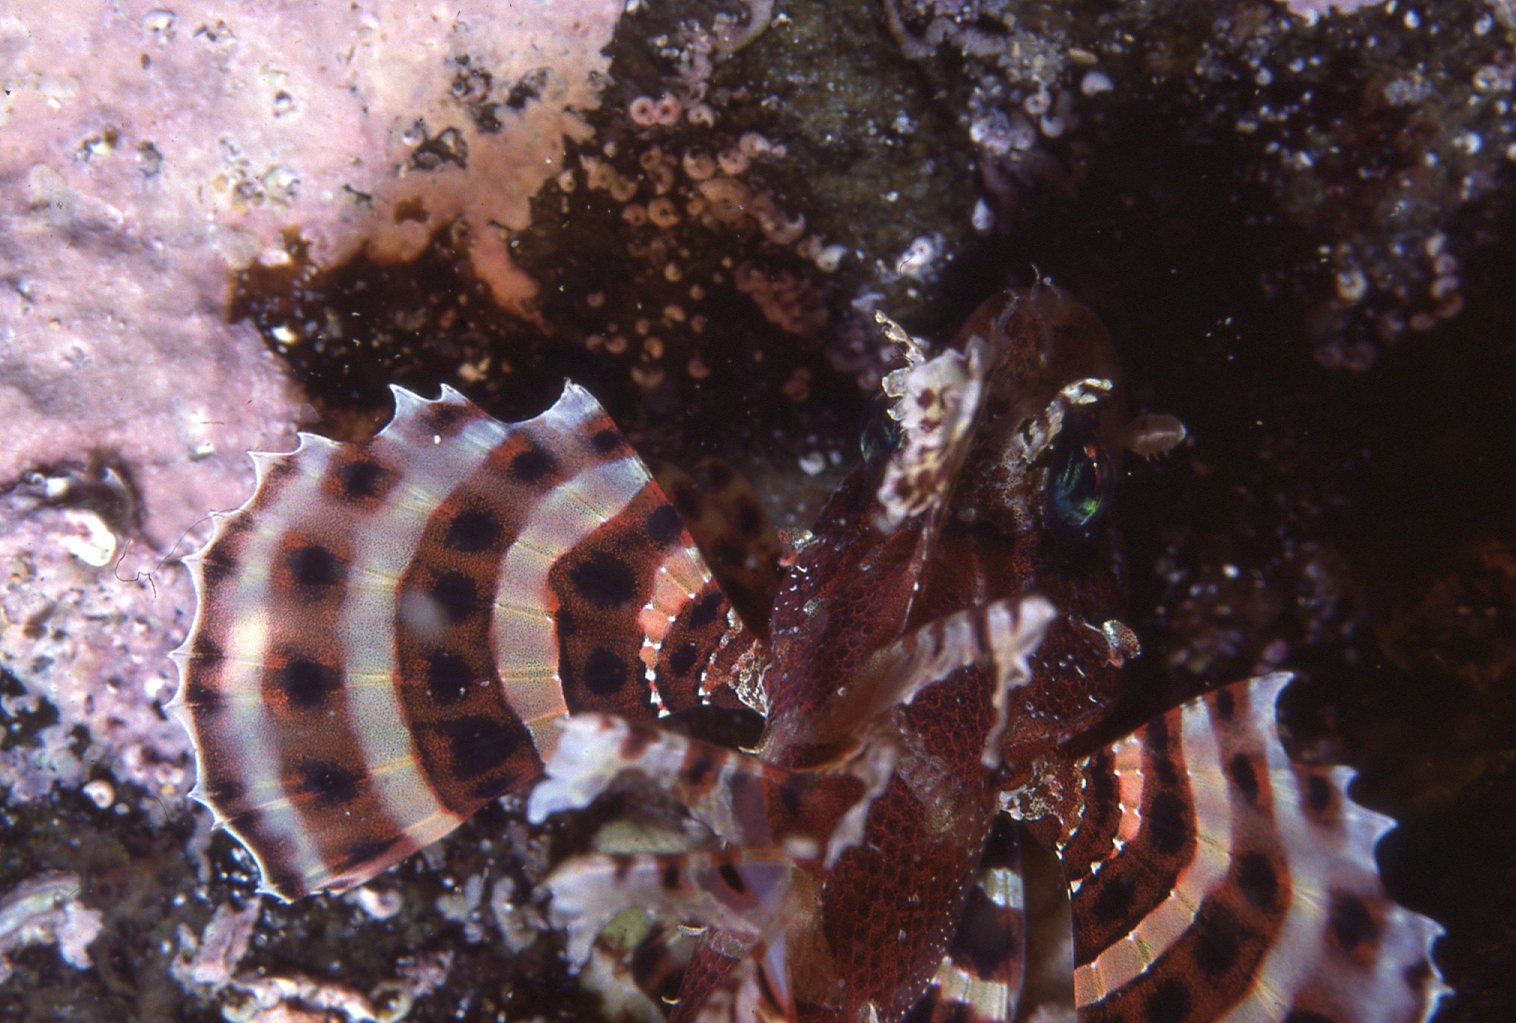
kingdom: Animalia
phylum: Chordata
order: Scorpaeniformes
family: Scorpaenidae
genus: Dendrochirus
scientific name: Dendrochirus brachypterus
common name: Shortfin turkeyfish
